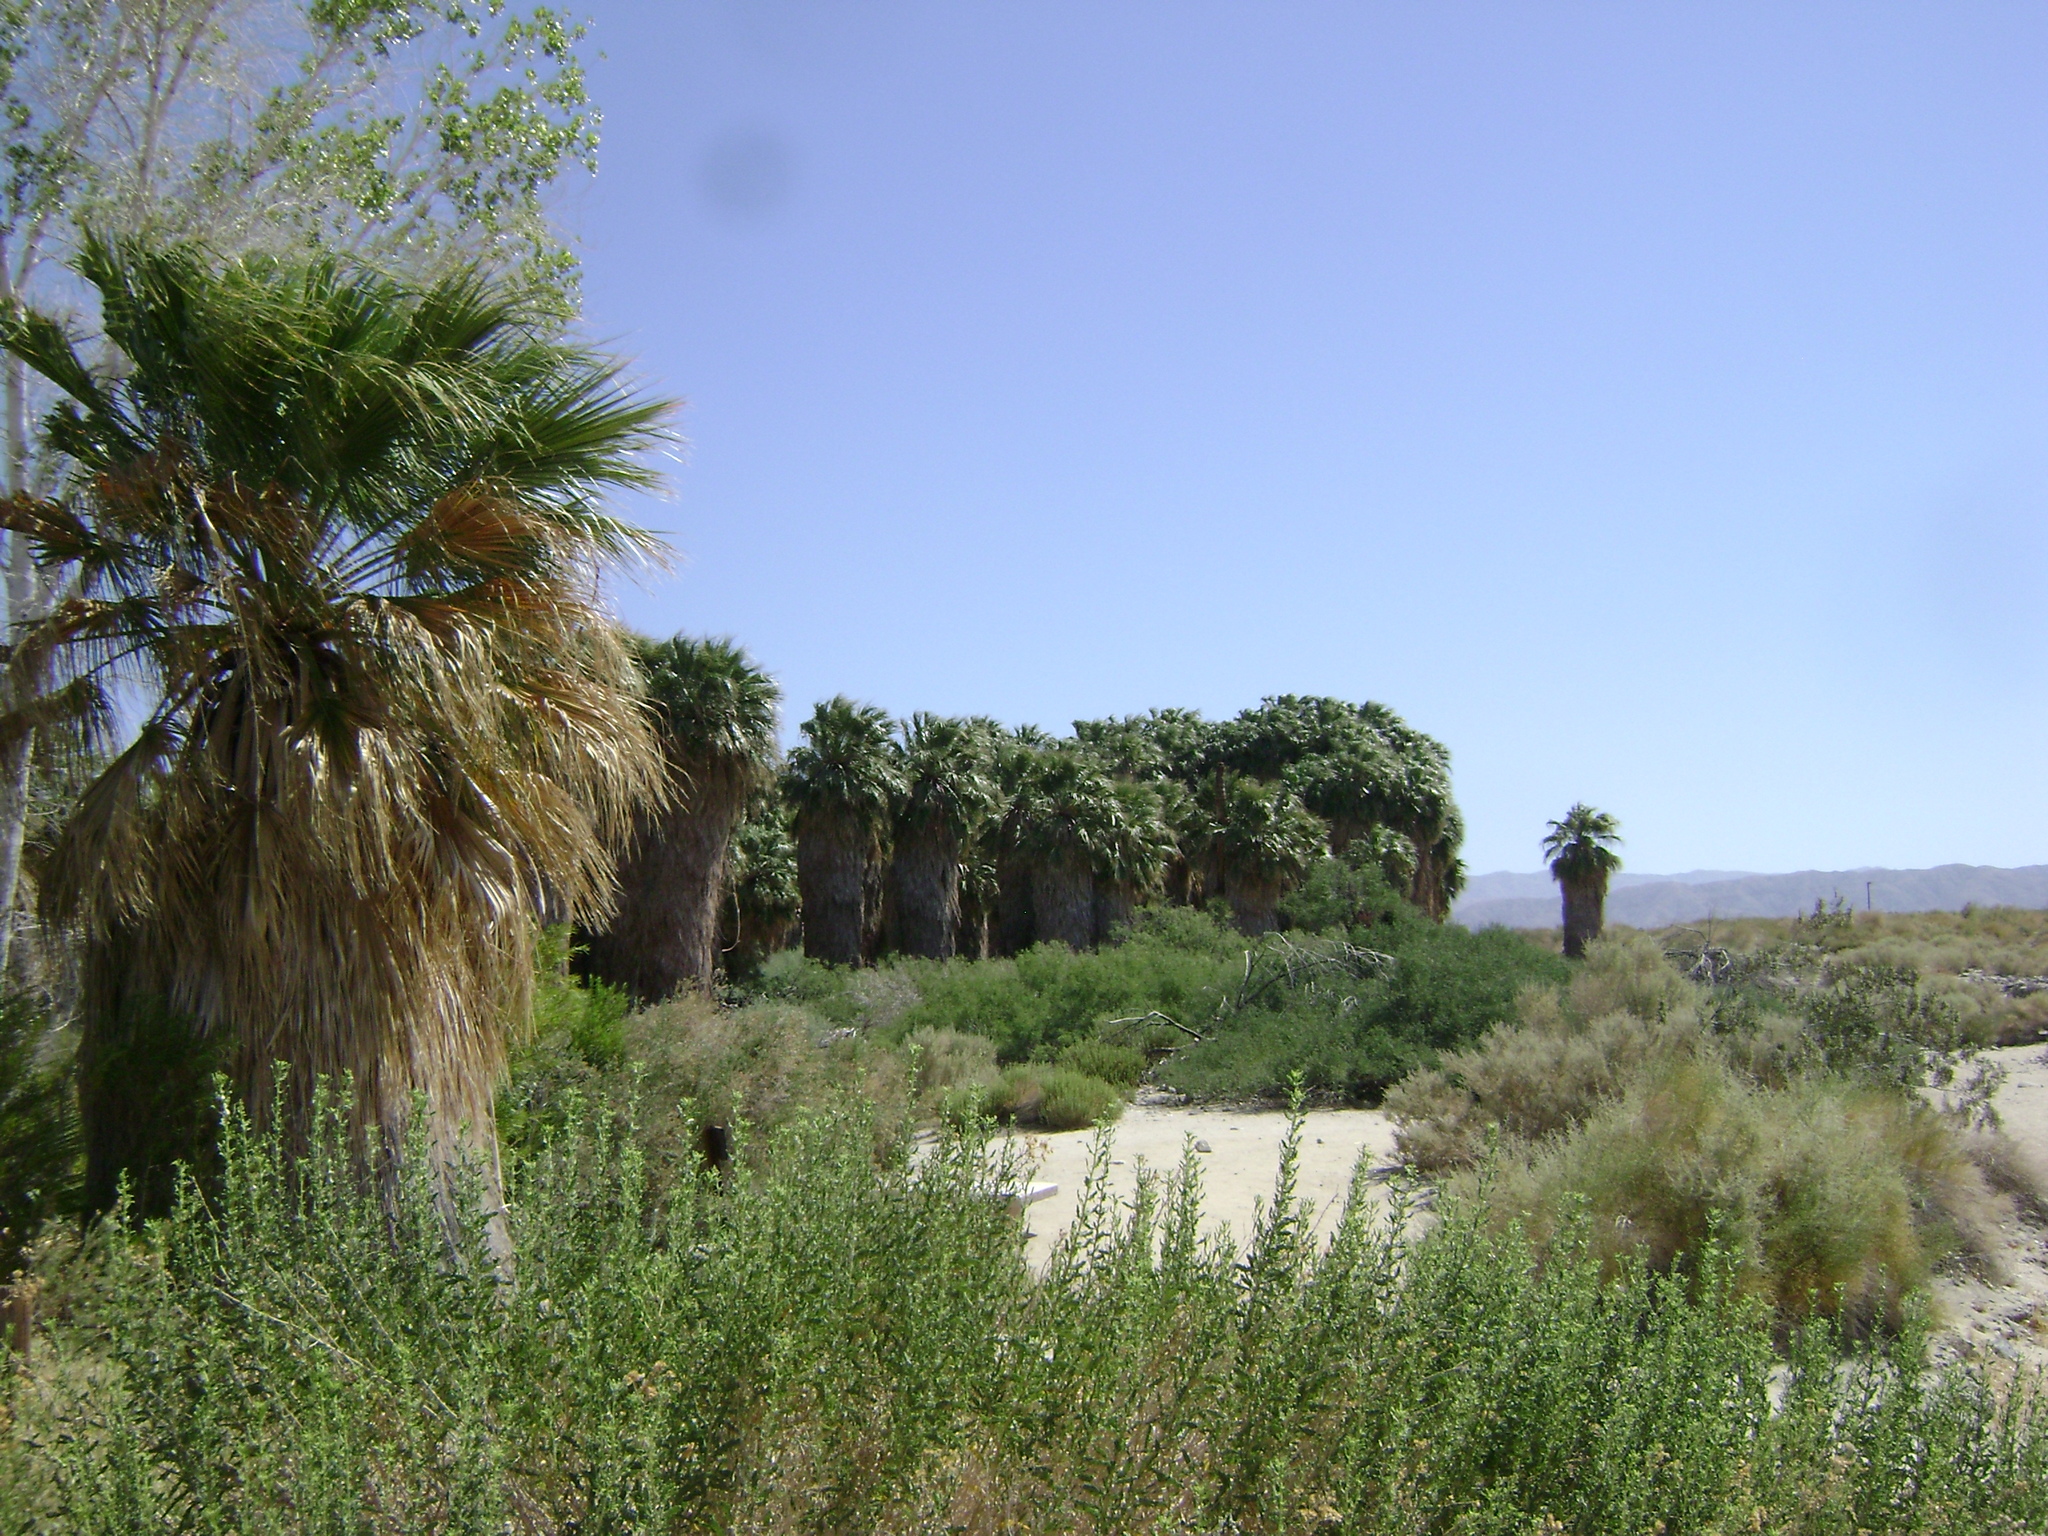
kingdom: Plantae
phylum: Tracheophyta
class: Liliopsida
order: Arecales
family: Arecaceae
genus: Washingtonia
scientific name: Washingtonia filifera
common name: California fan palm
